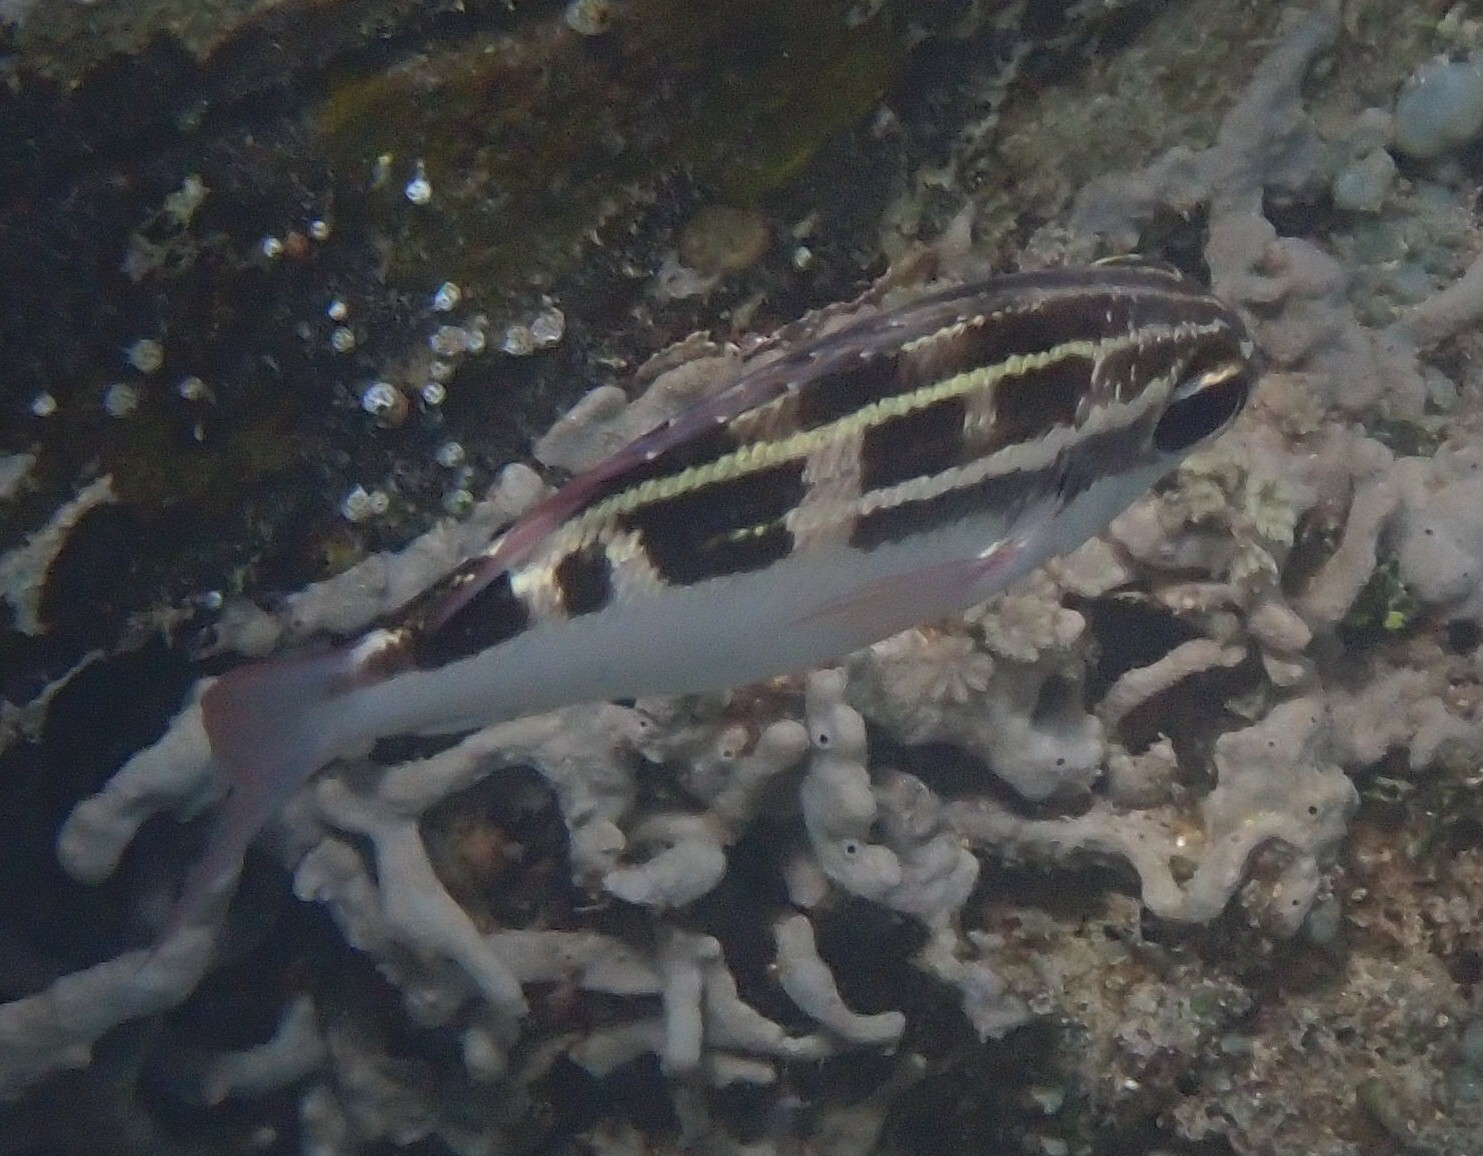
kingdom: Animalia
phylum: Chordata
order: Perciformes
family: Nemipteridae
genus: Scolopsis
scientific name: Scolopsis lineata
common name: Striped monocle bream
